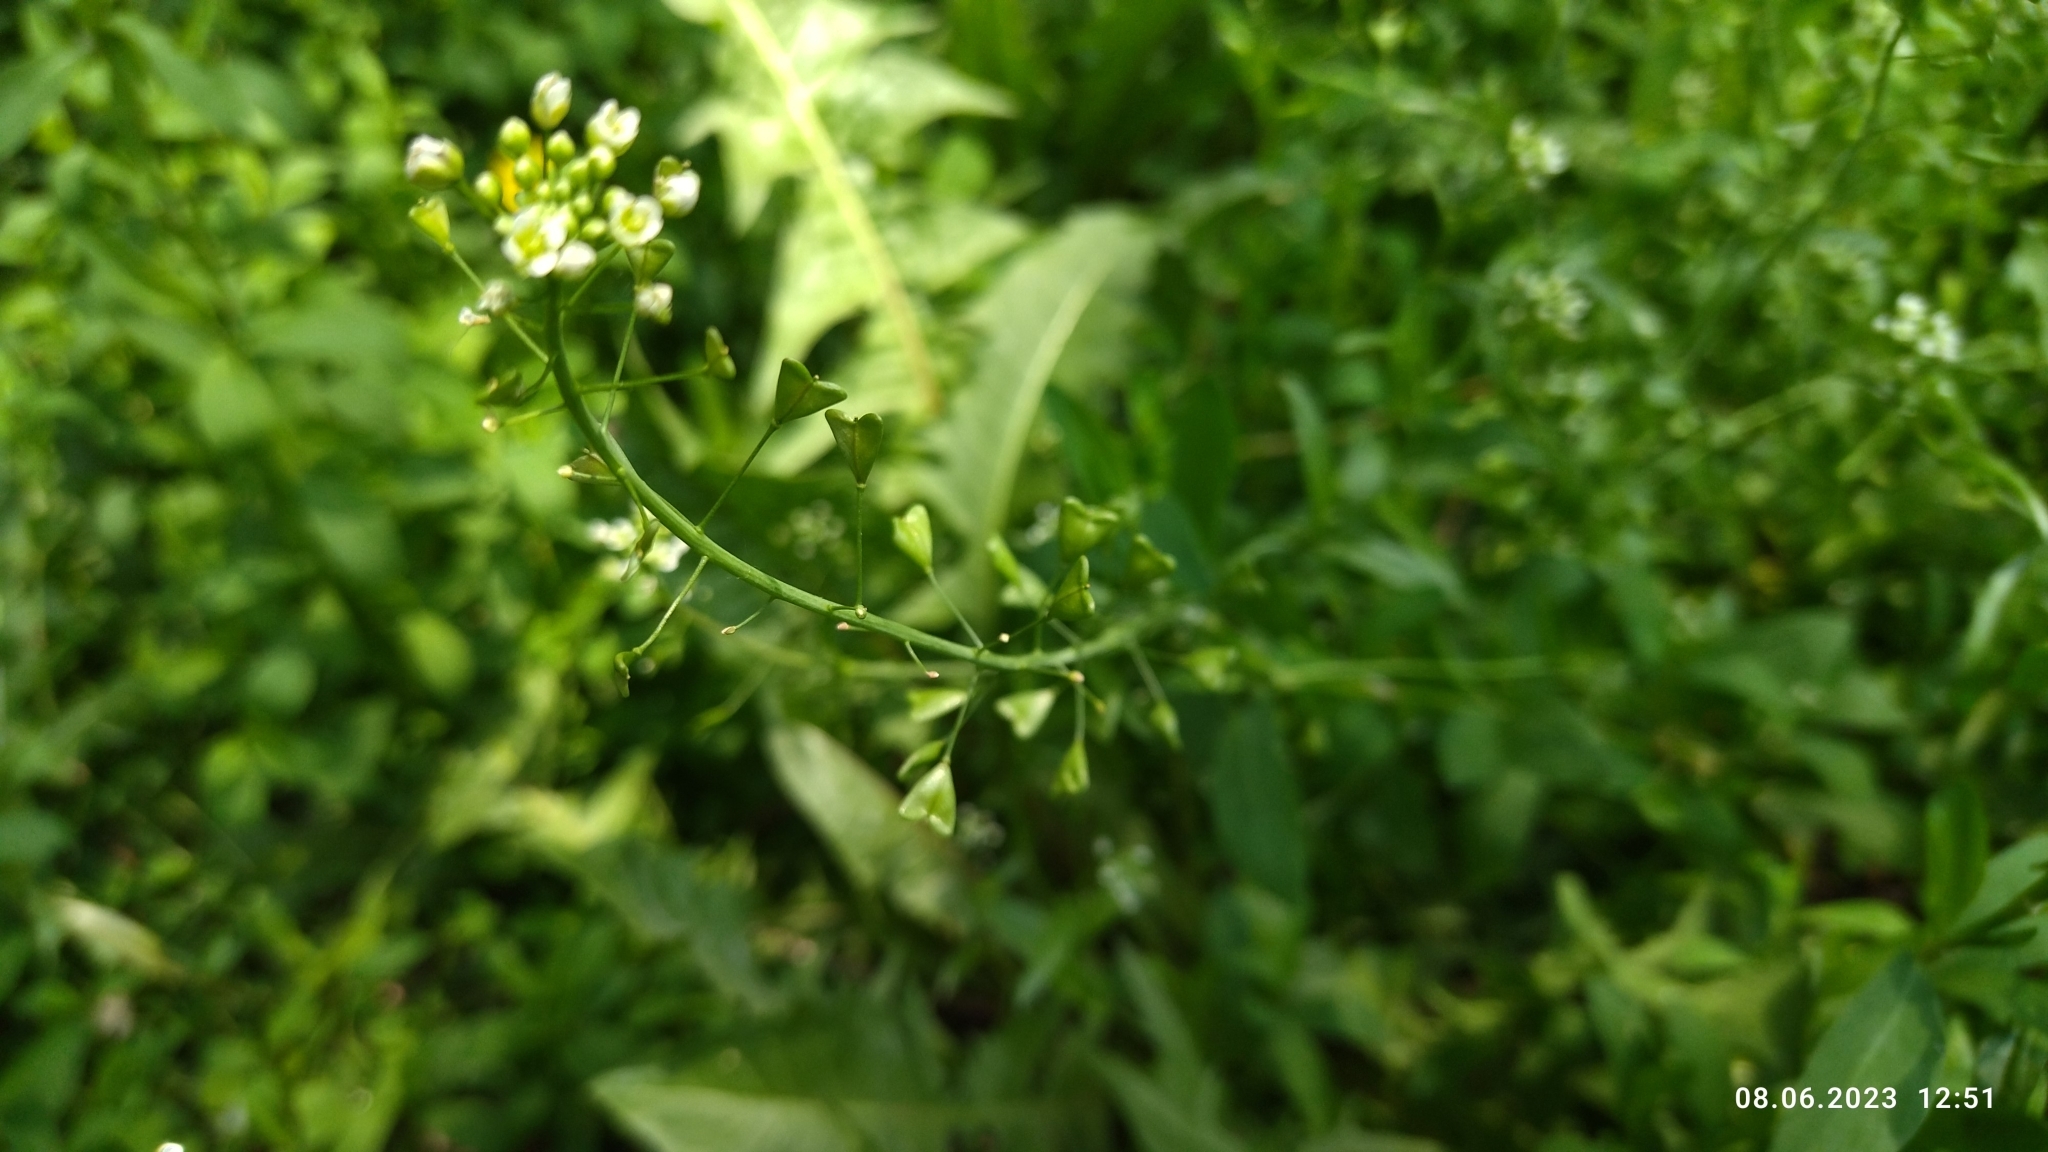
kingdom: Plantae
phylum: Tracheophyta
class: Magnoliopsida
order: Brassicales
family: Brassicaceae
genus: Capsella
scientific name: Capsella bursa-pastoris
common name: Shepherd's purse
